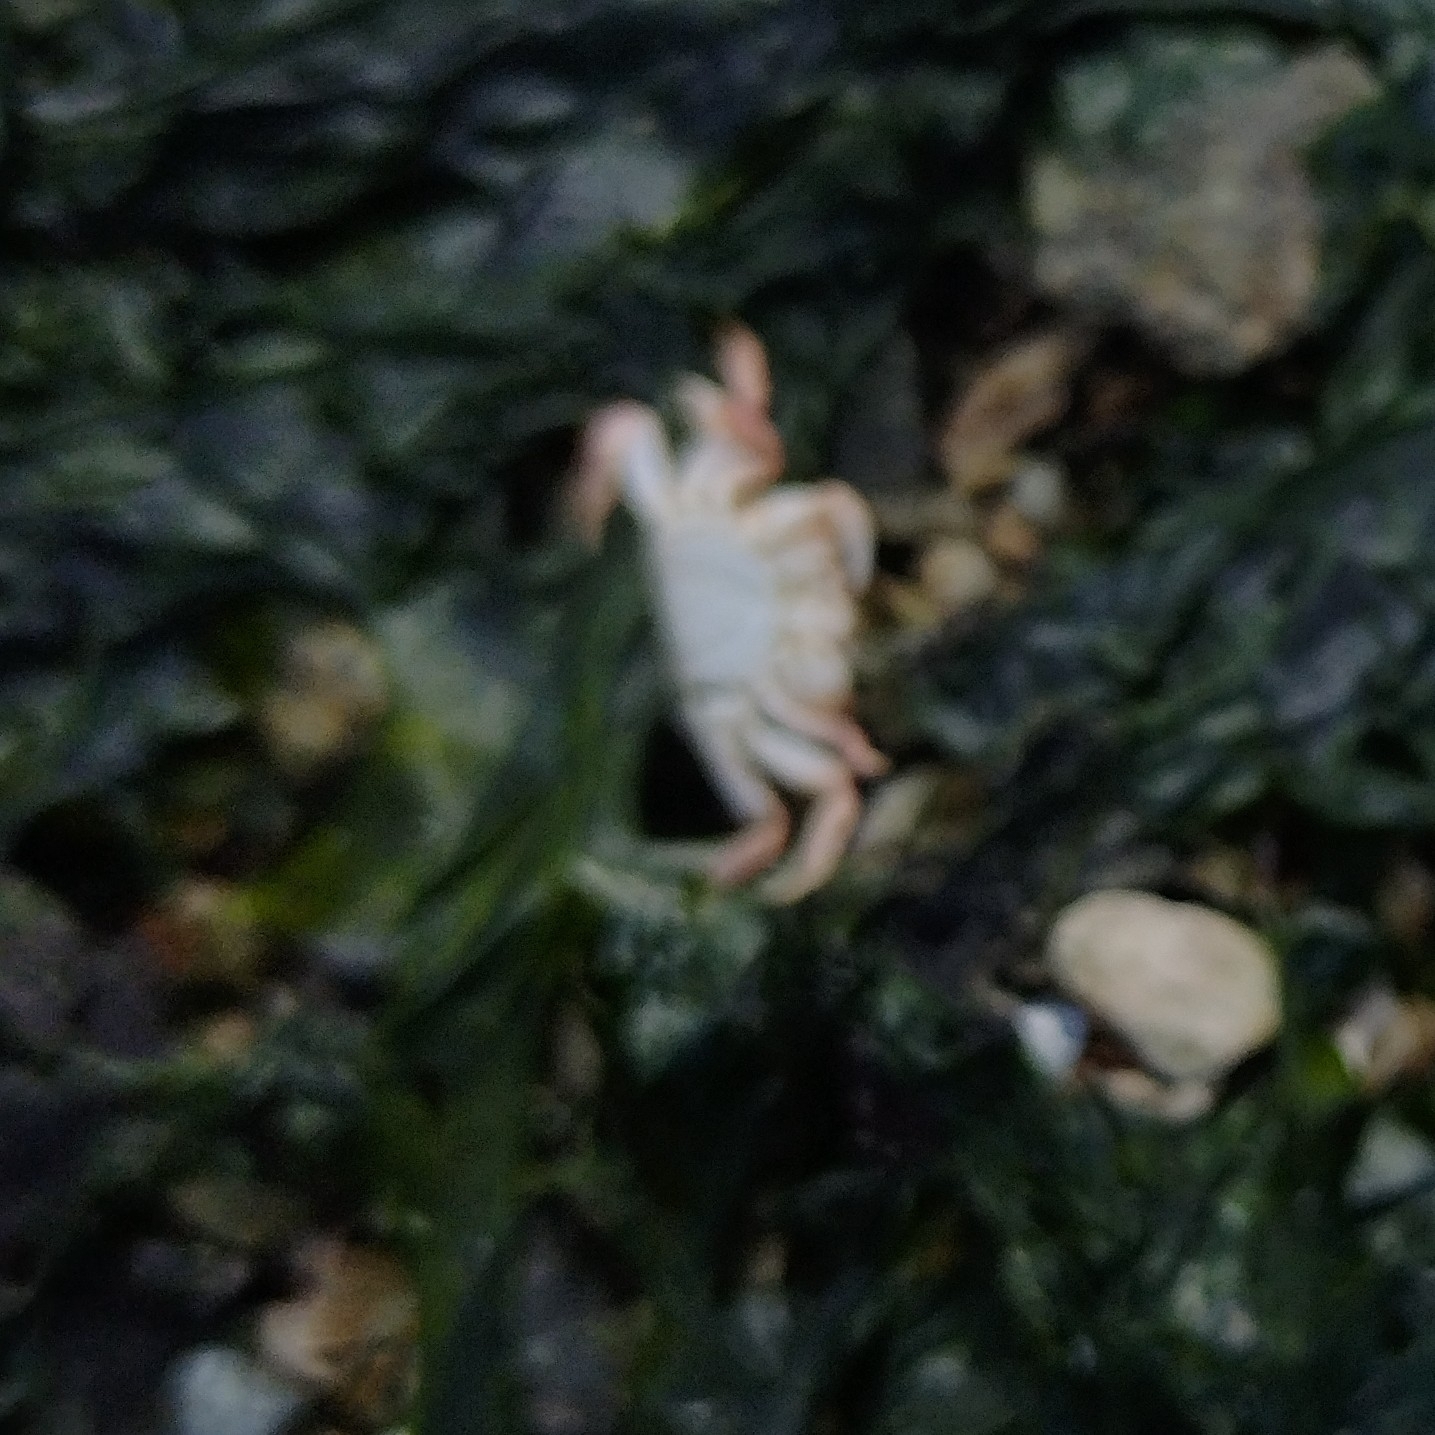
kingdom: Animalia
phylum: Arthropoda
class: Malacostraca
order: Decapoda
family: Varunidae
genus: Hemigrapsus
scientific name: Hemigrapsus oregonensis
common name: Yellow shore crab
